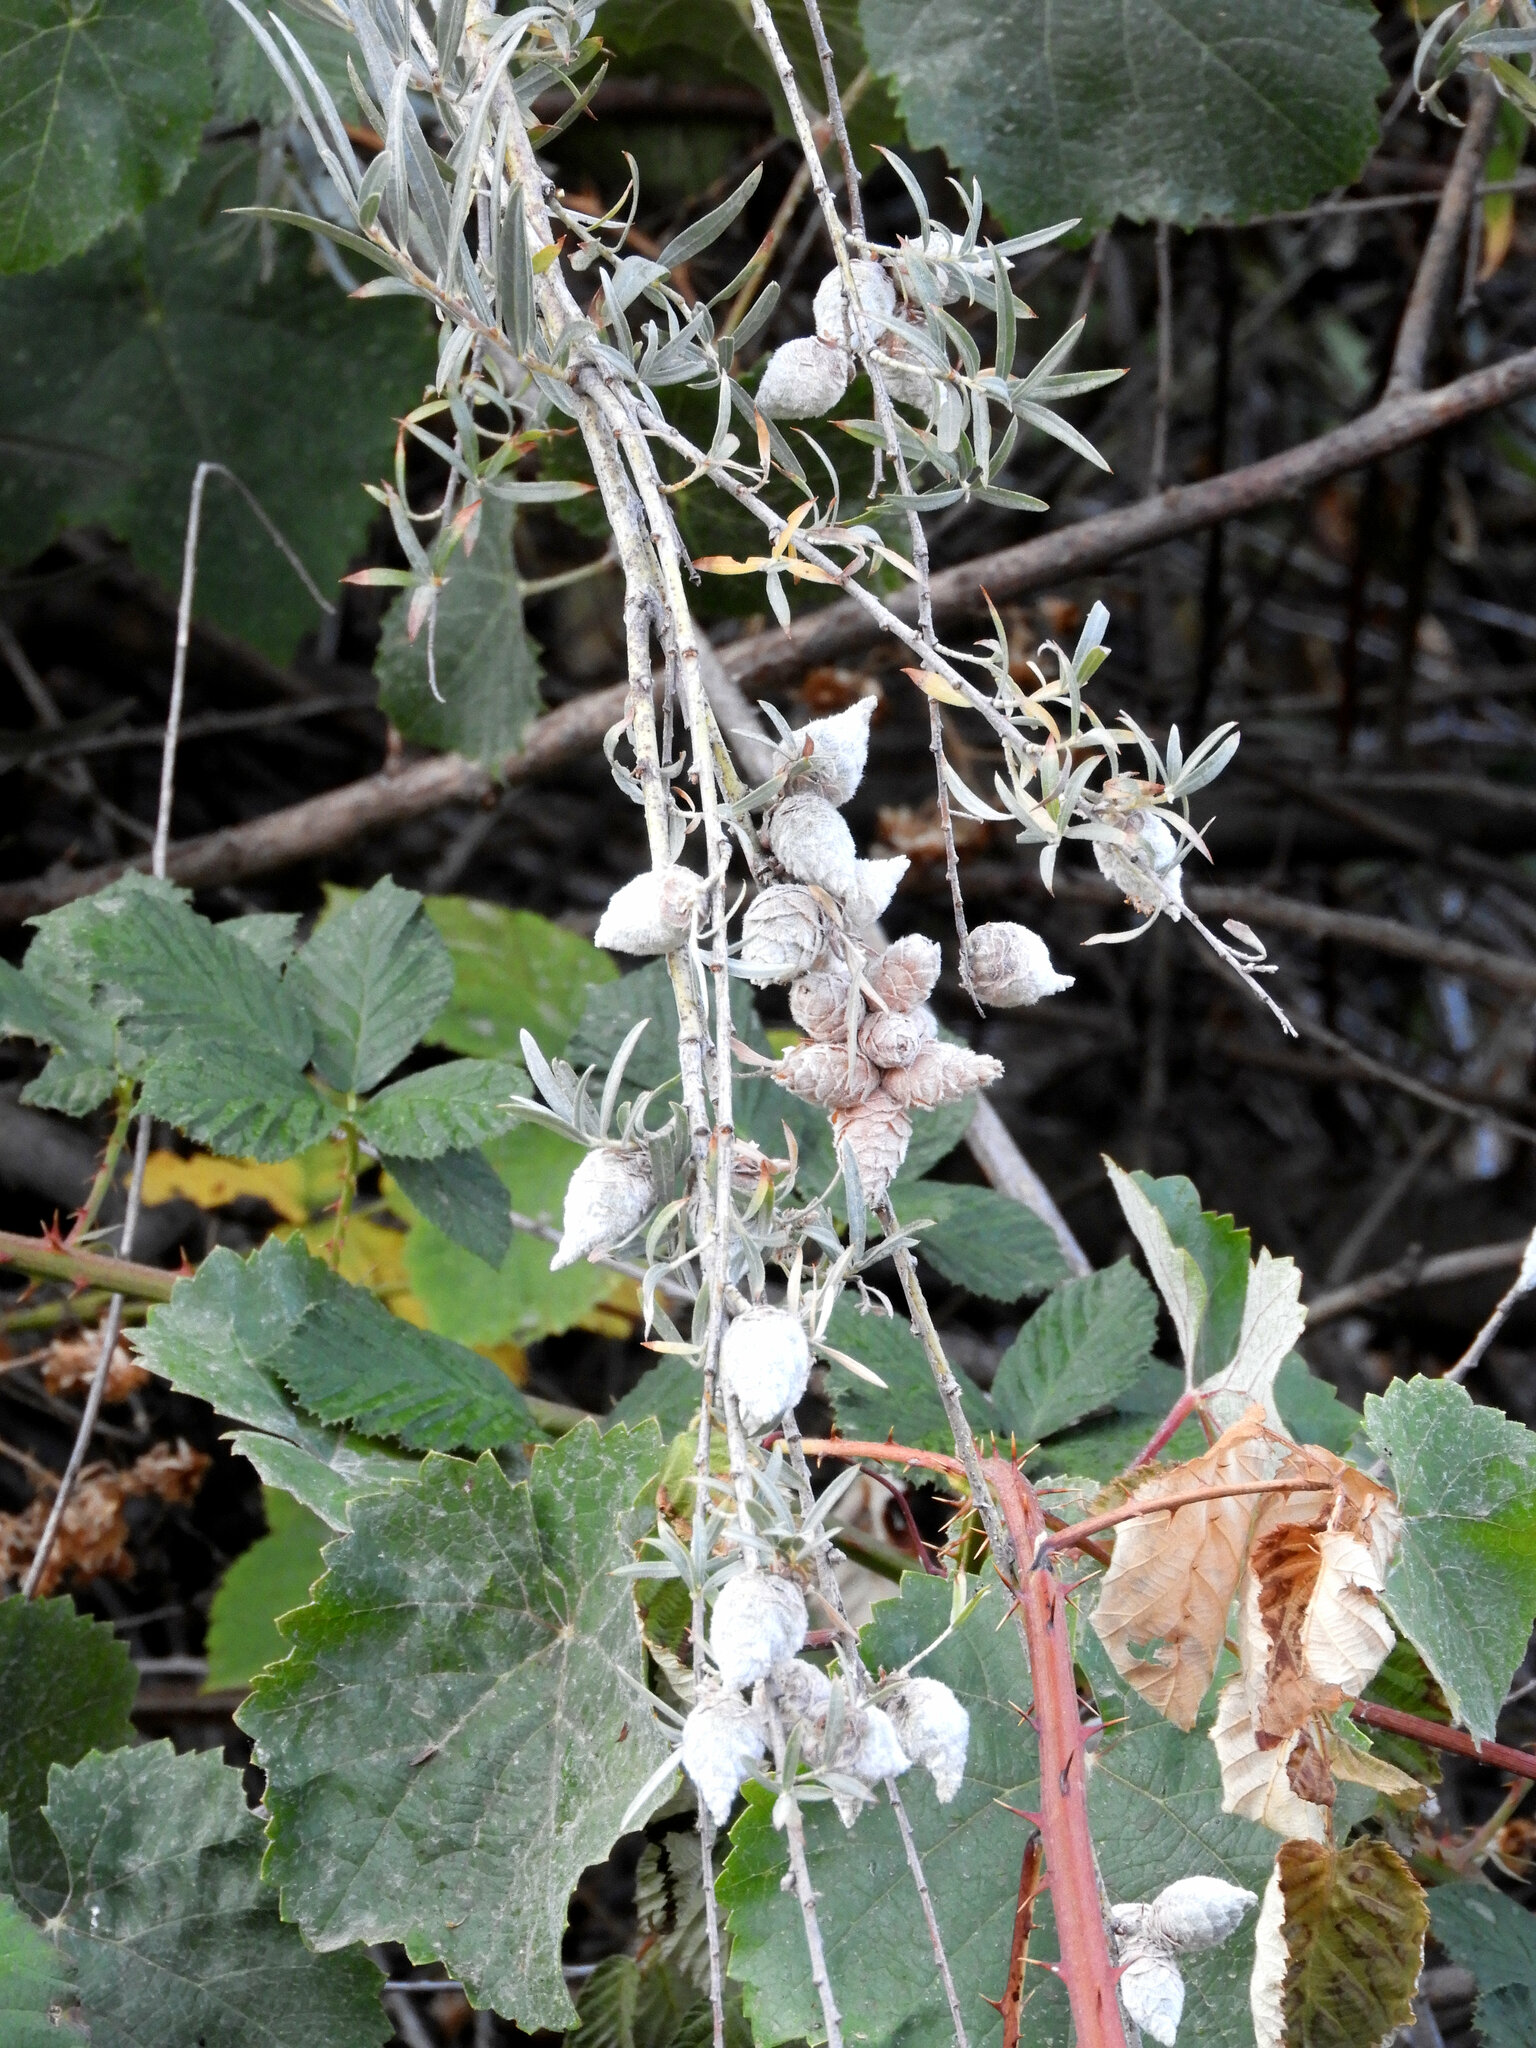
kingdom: Animalia
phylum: Arthropoda
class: Insecta
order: Diptera
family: Cecidomyiidae
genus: Rabdophaga
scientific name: Rabdophaga strobiloides
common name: Willow pinecone gall midge
